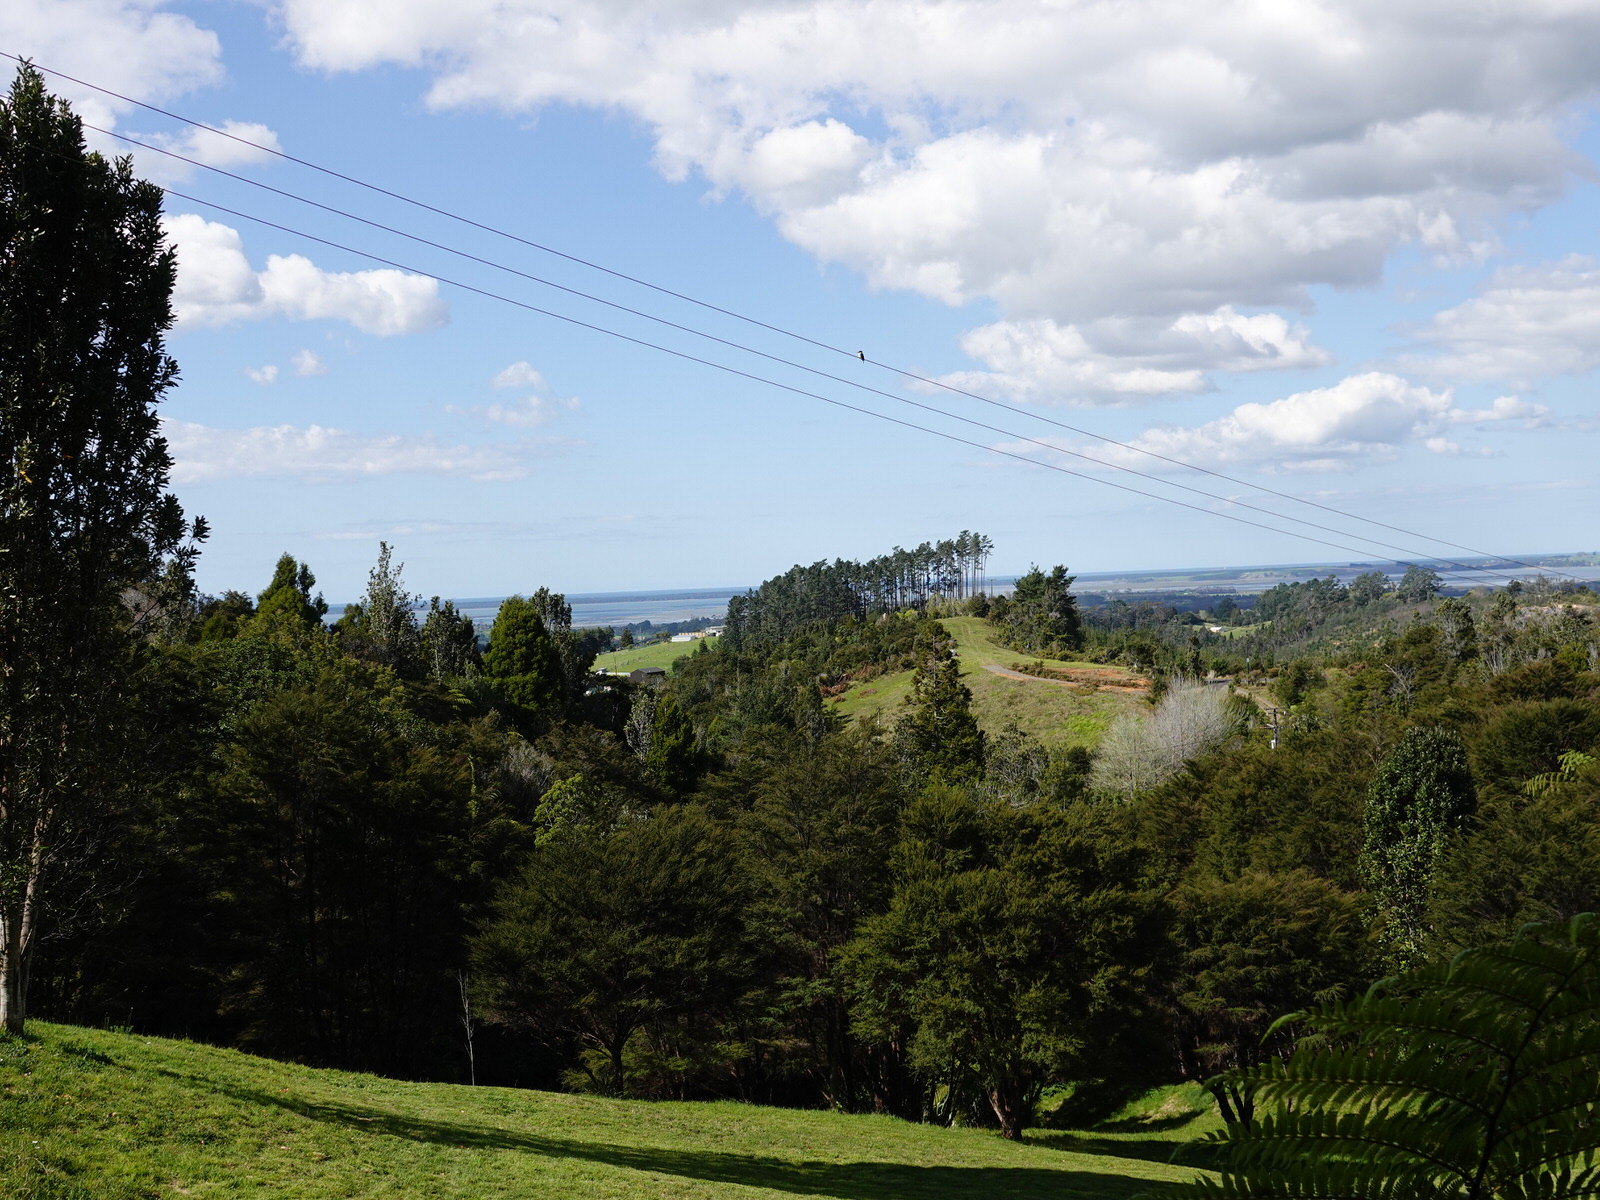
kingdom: Animalia
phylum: Chordata
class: Aves
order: Coraciiformes
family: Alcedinidae
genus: Todiramphus
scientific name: Todiramphus sanctus
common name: Sacred kingfisher
